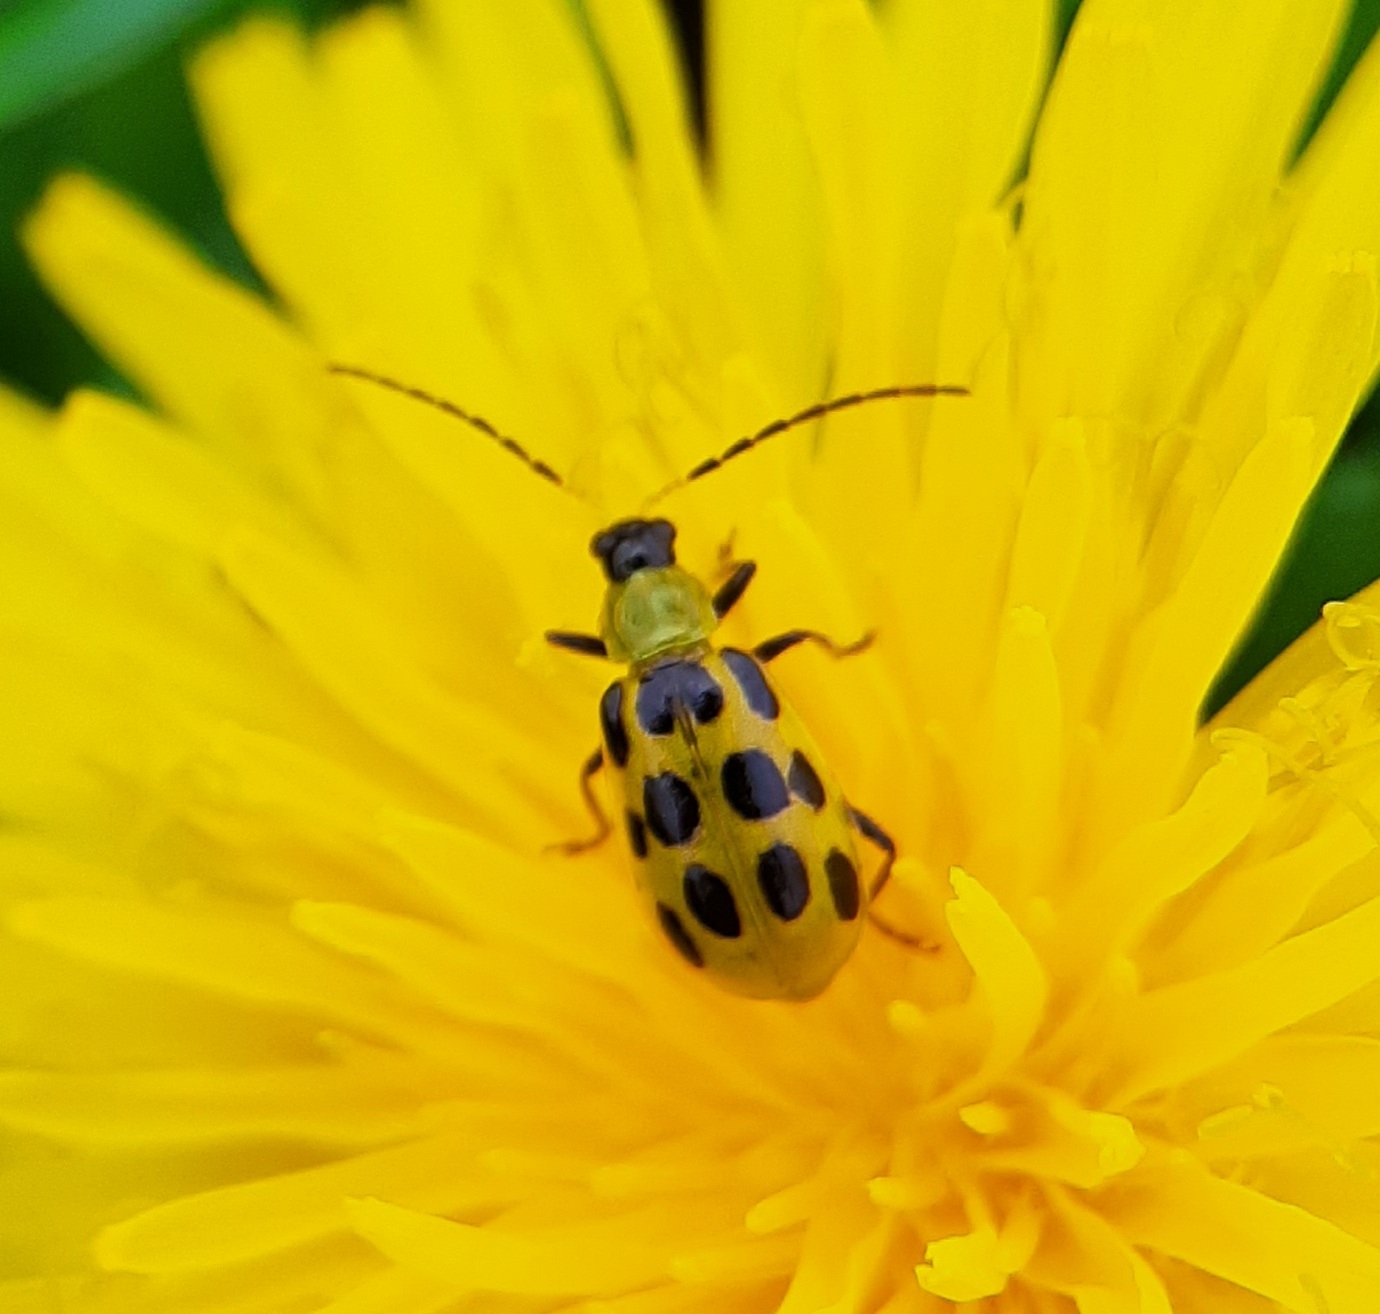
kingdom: Animalia
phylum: Arthropoda
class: Insecta
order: Coleoptera
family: Chrysomelidae
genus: Diabrotica
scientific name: Diabrotica undecimpunctata
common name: Spotted cucumber beetle
